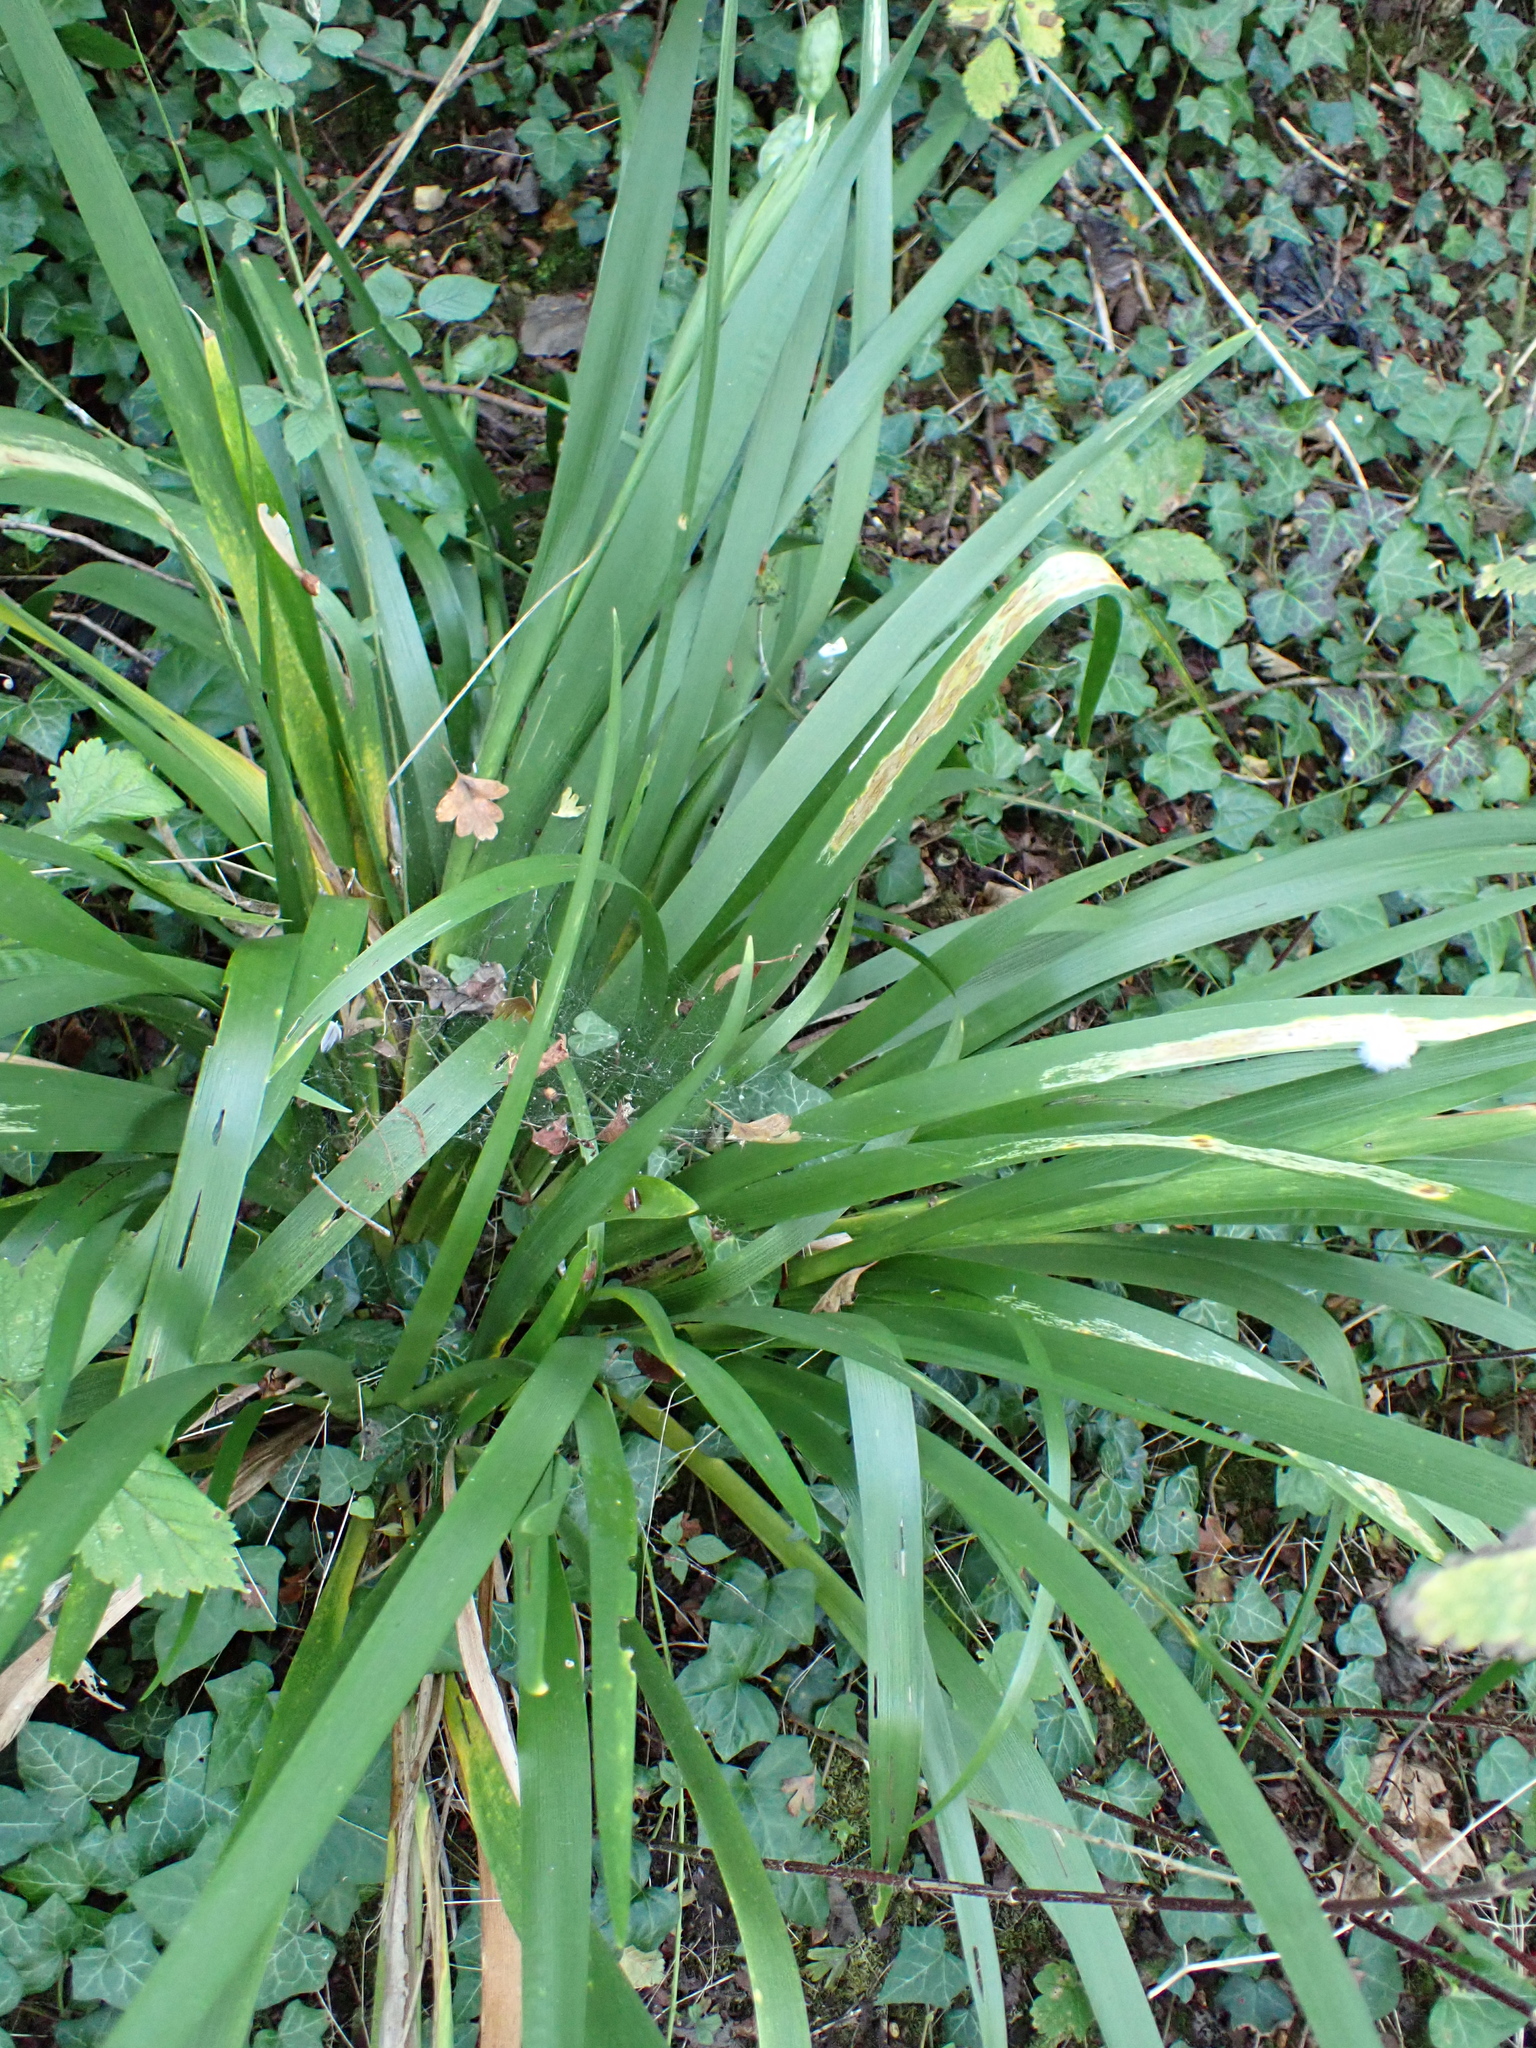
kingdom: Plantae
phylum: Tracheophyta
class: Liliopsida
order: Asparagales
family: Iridaceae
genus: Iris
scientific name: Iris foetidissima
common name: Stinking iris
